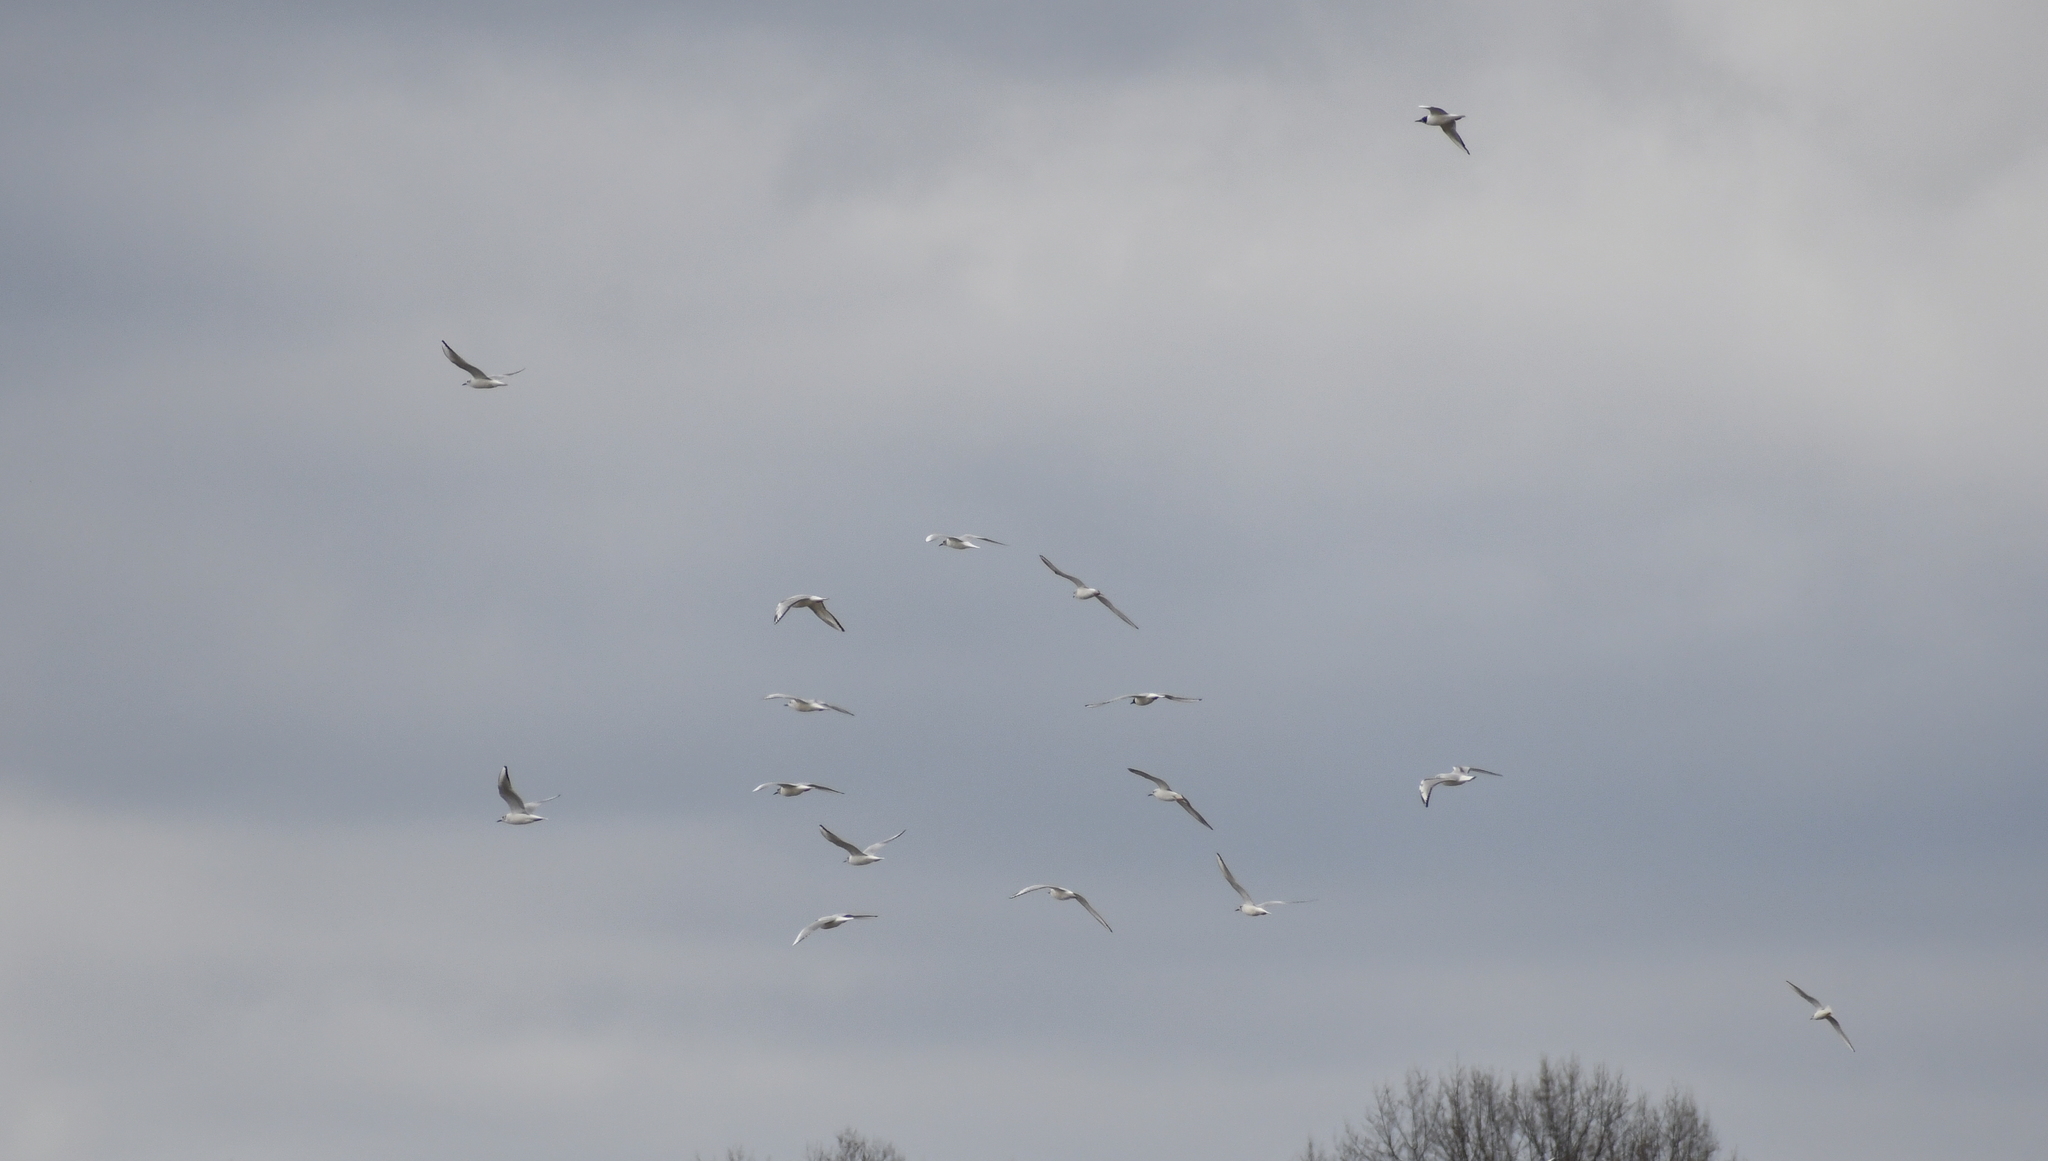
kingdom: Animalia
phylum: Chordata
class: Aves
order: Charadriiformes
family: Laridae
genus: Chroicocephalus
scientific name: Chroicocephalus philadelphia
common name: Bonaparte's gull
